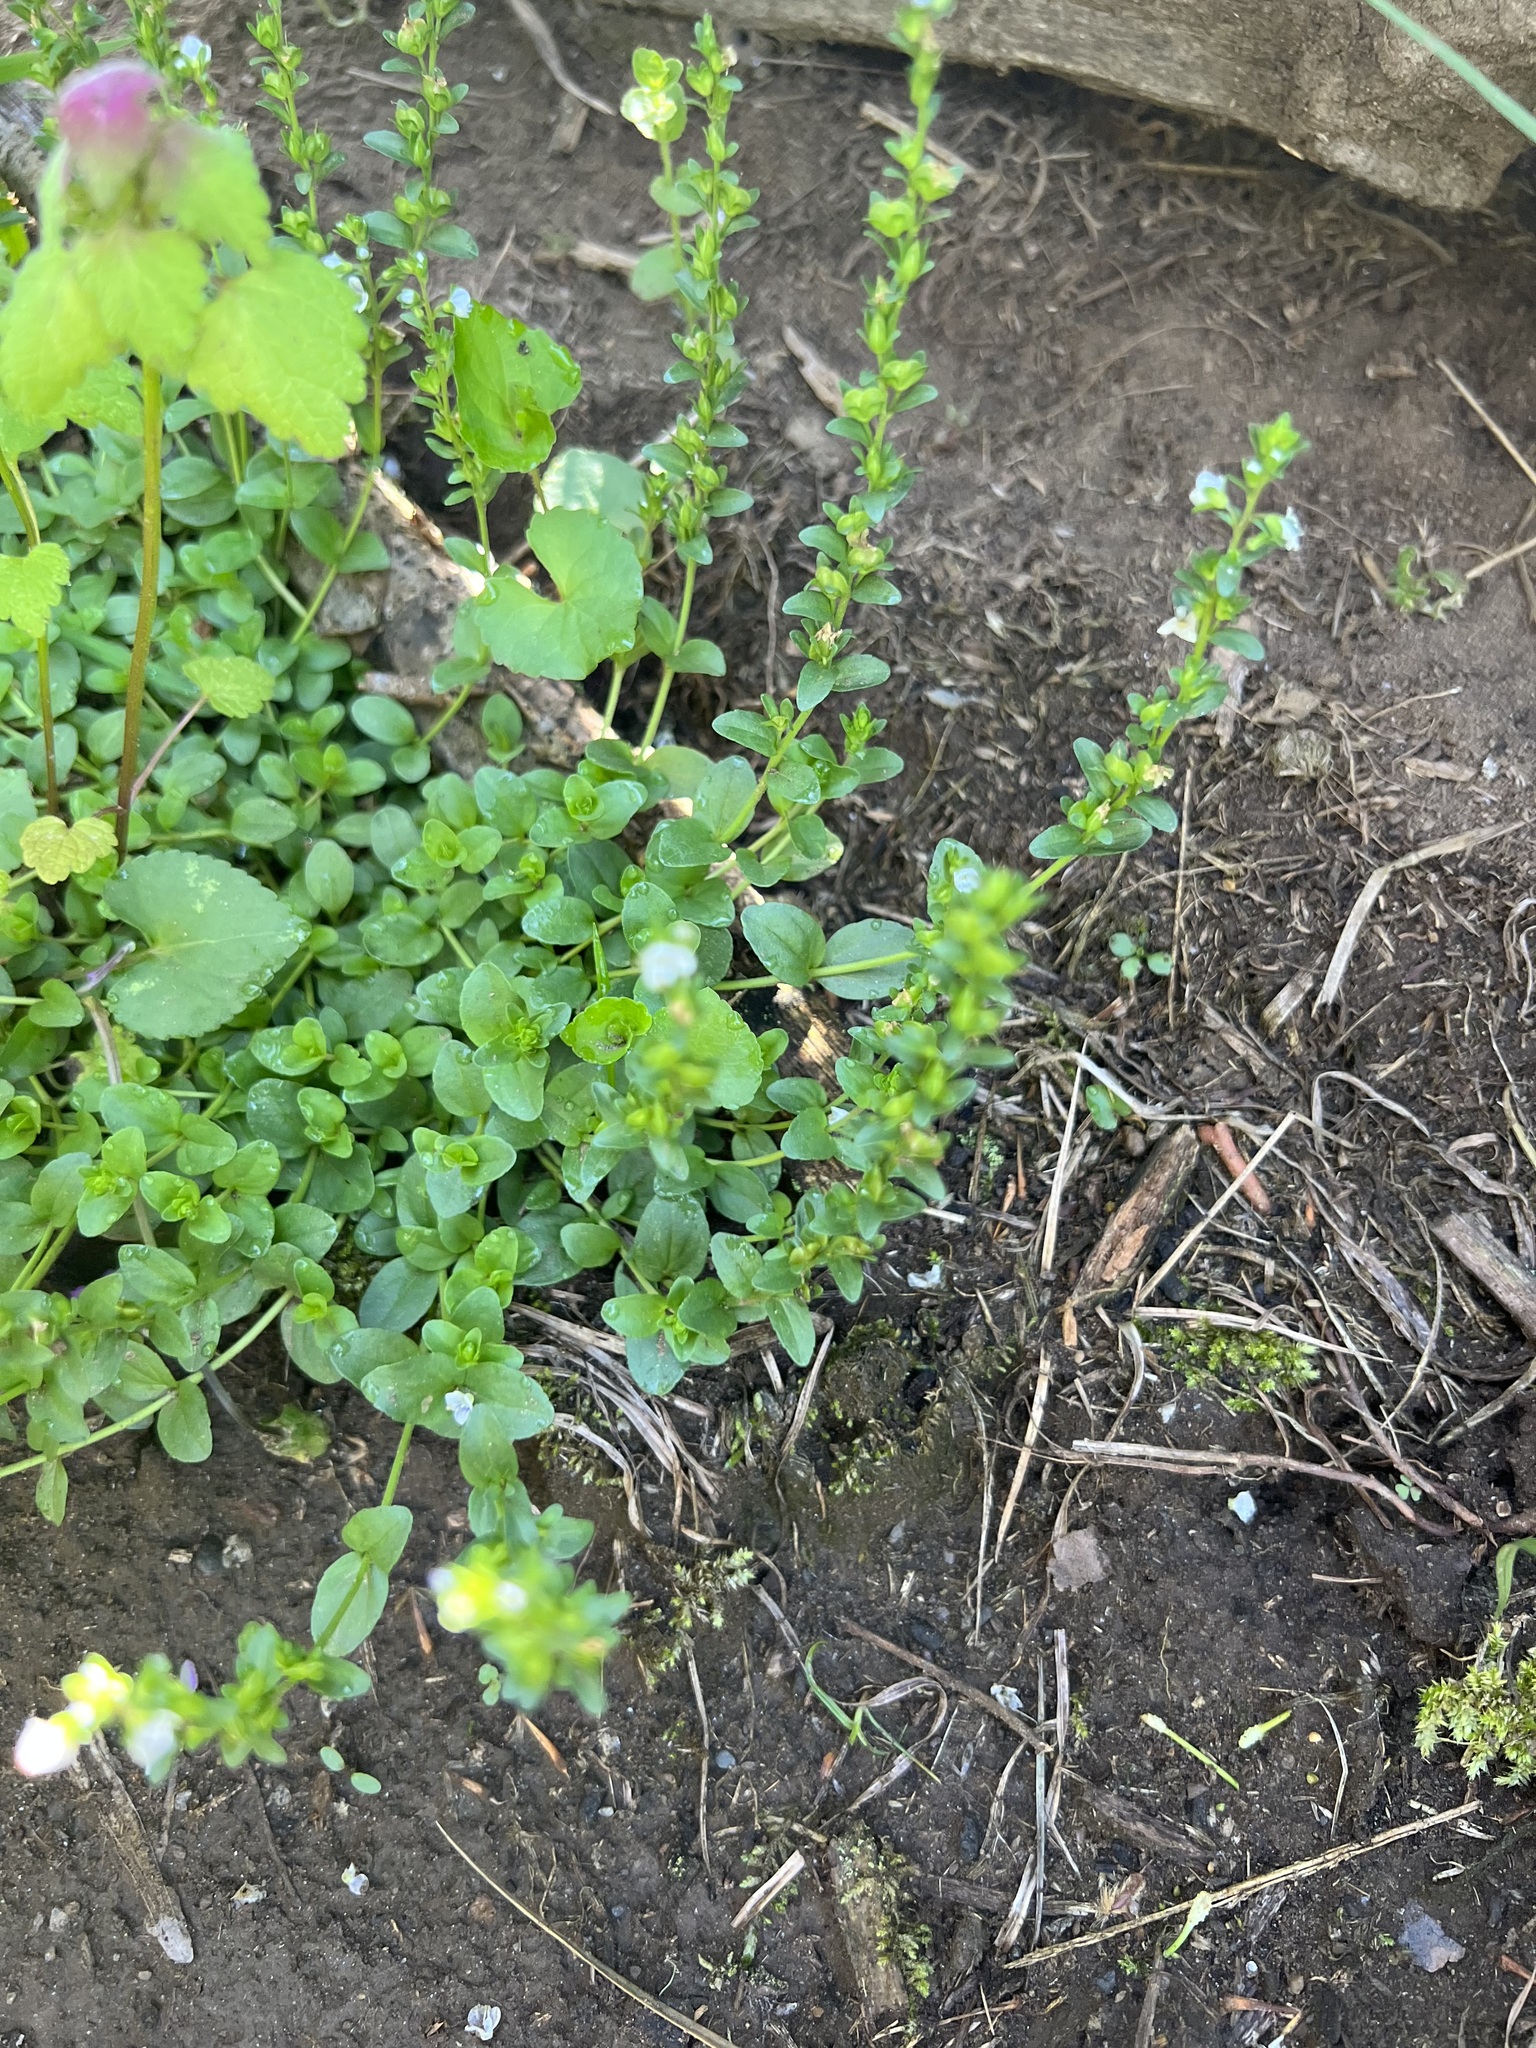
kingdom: Plantae
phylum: Tracheophyta
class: Magnoliopsida
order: Lamiales
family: Plantaginaceae
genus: Veronica
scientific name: Veronica serpyllifolia
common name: Thyme-leaved speedwell
